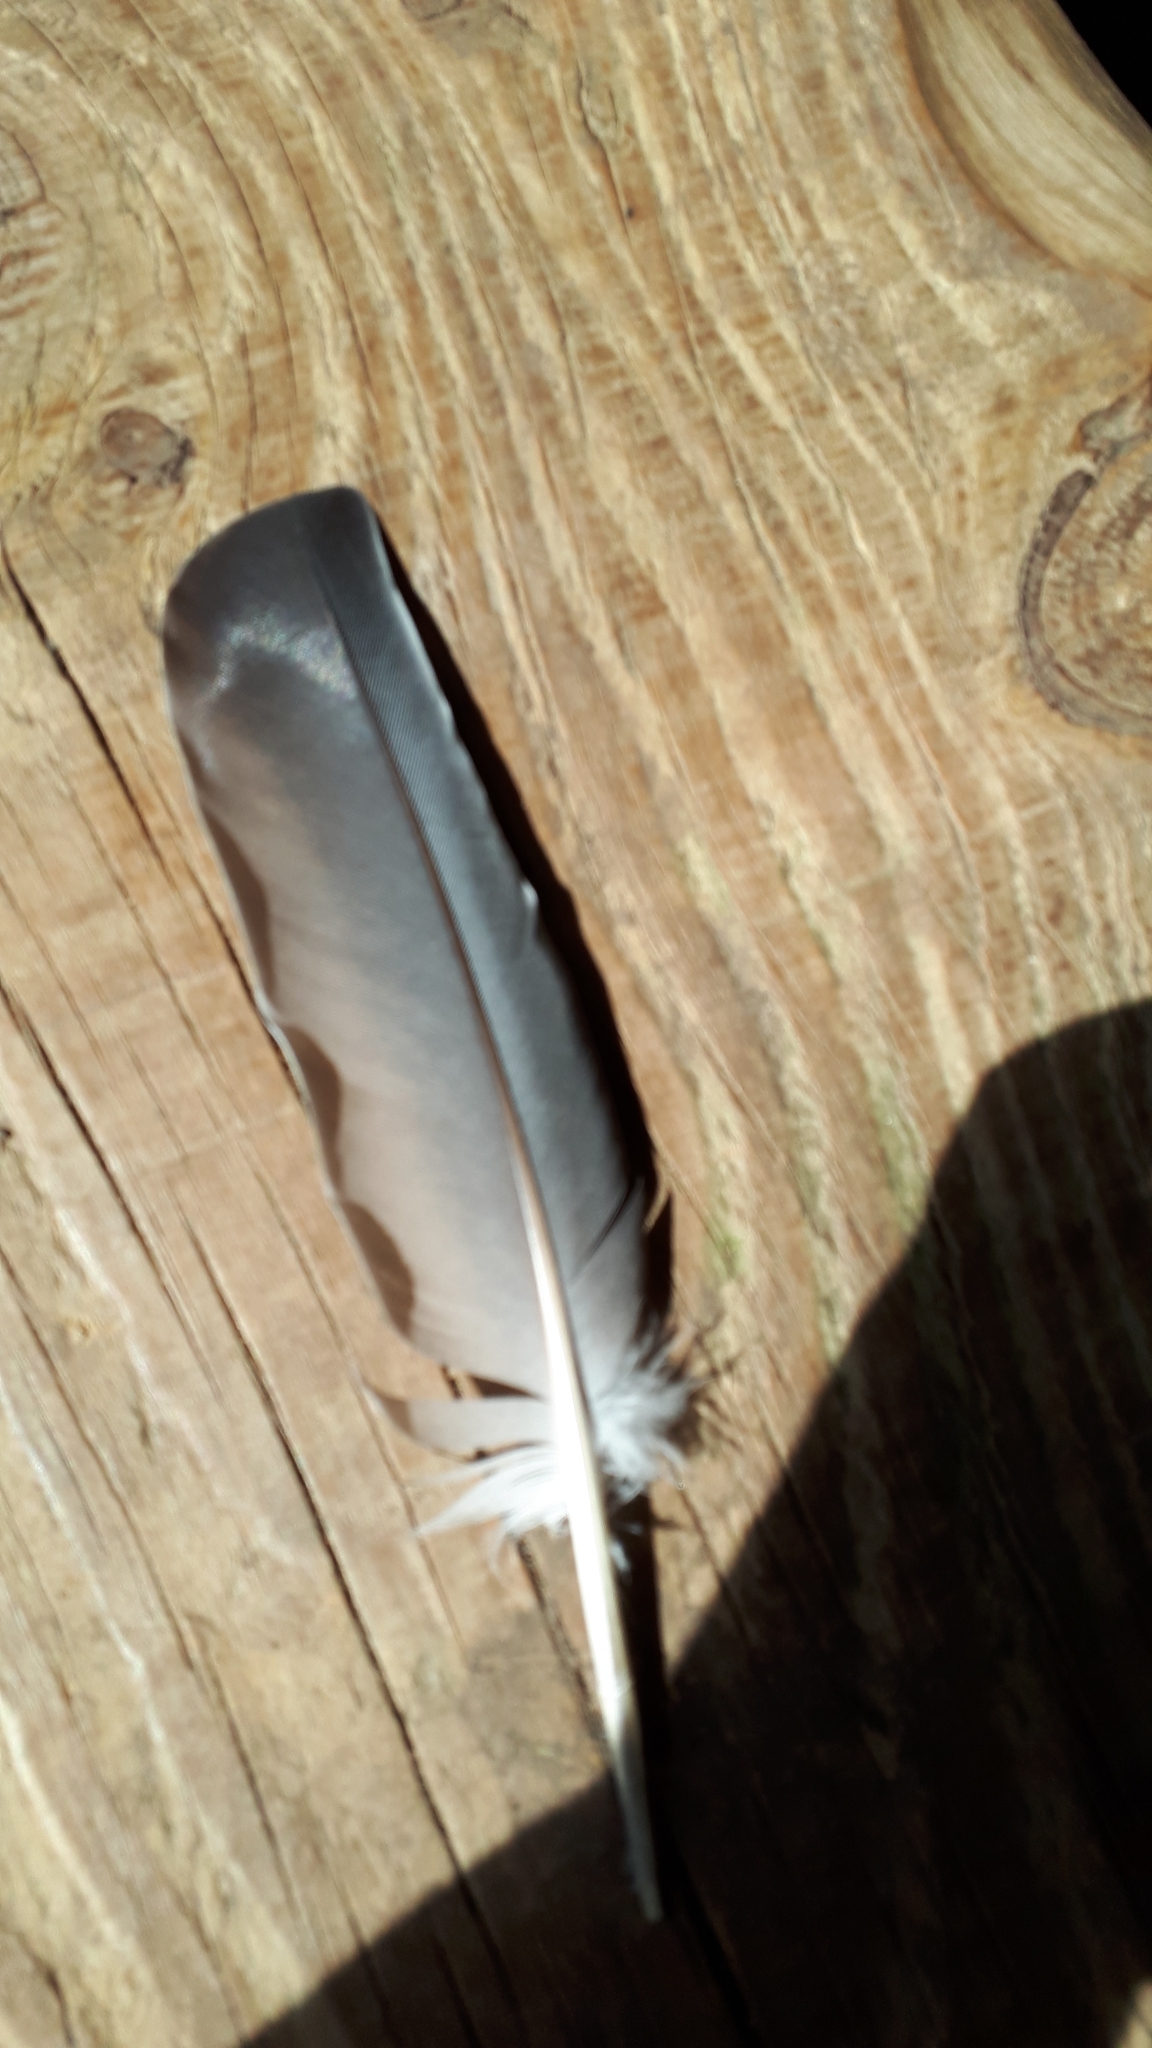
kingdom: Animalia
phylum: Chordata
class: Aves
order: Columbiformes
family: Columbidae
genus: Columba
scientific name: Columba palumbus
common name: Common wood pigeon
